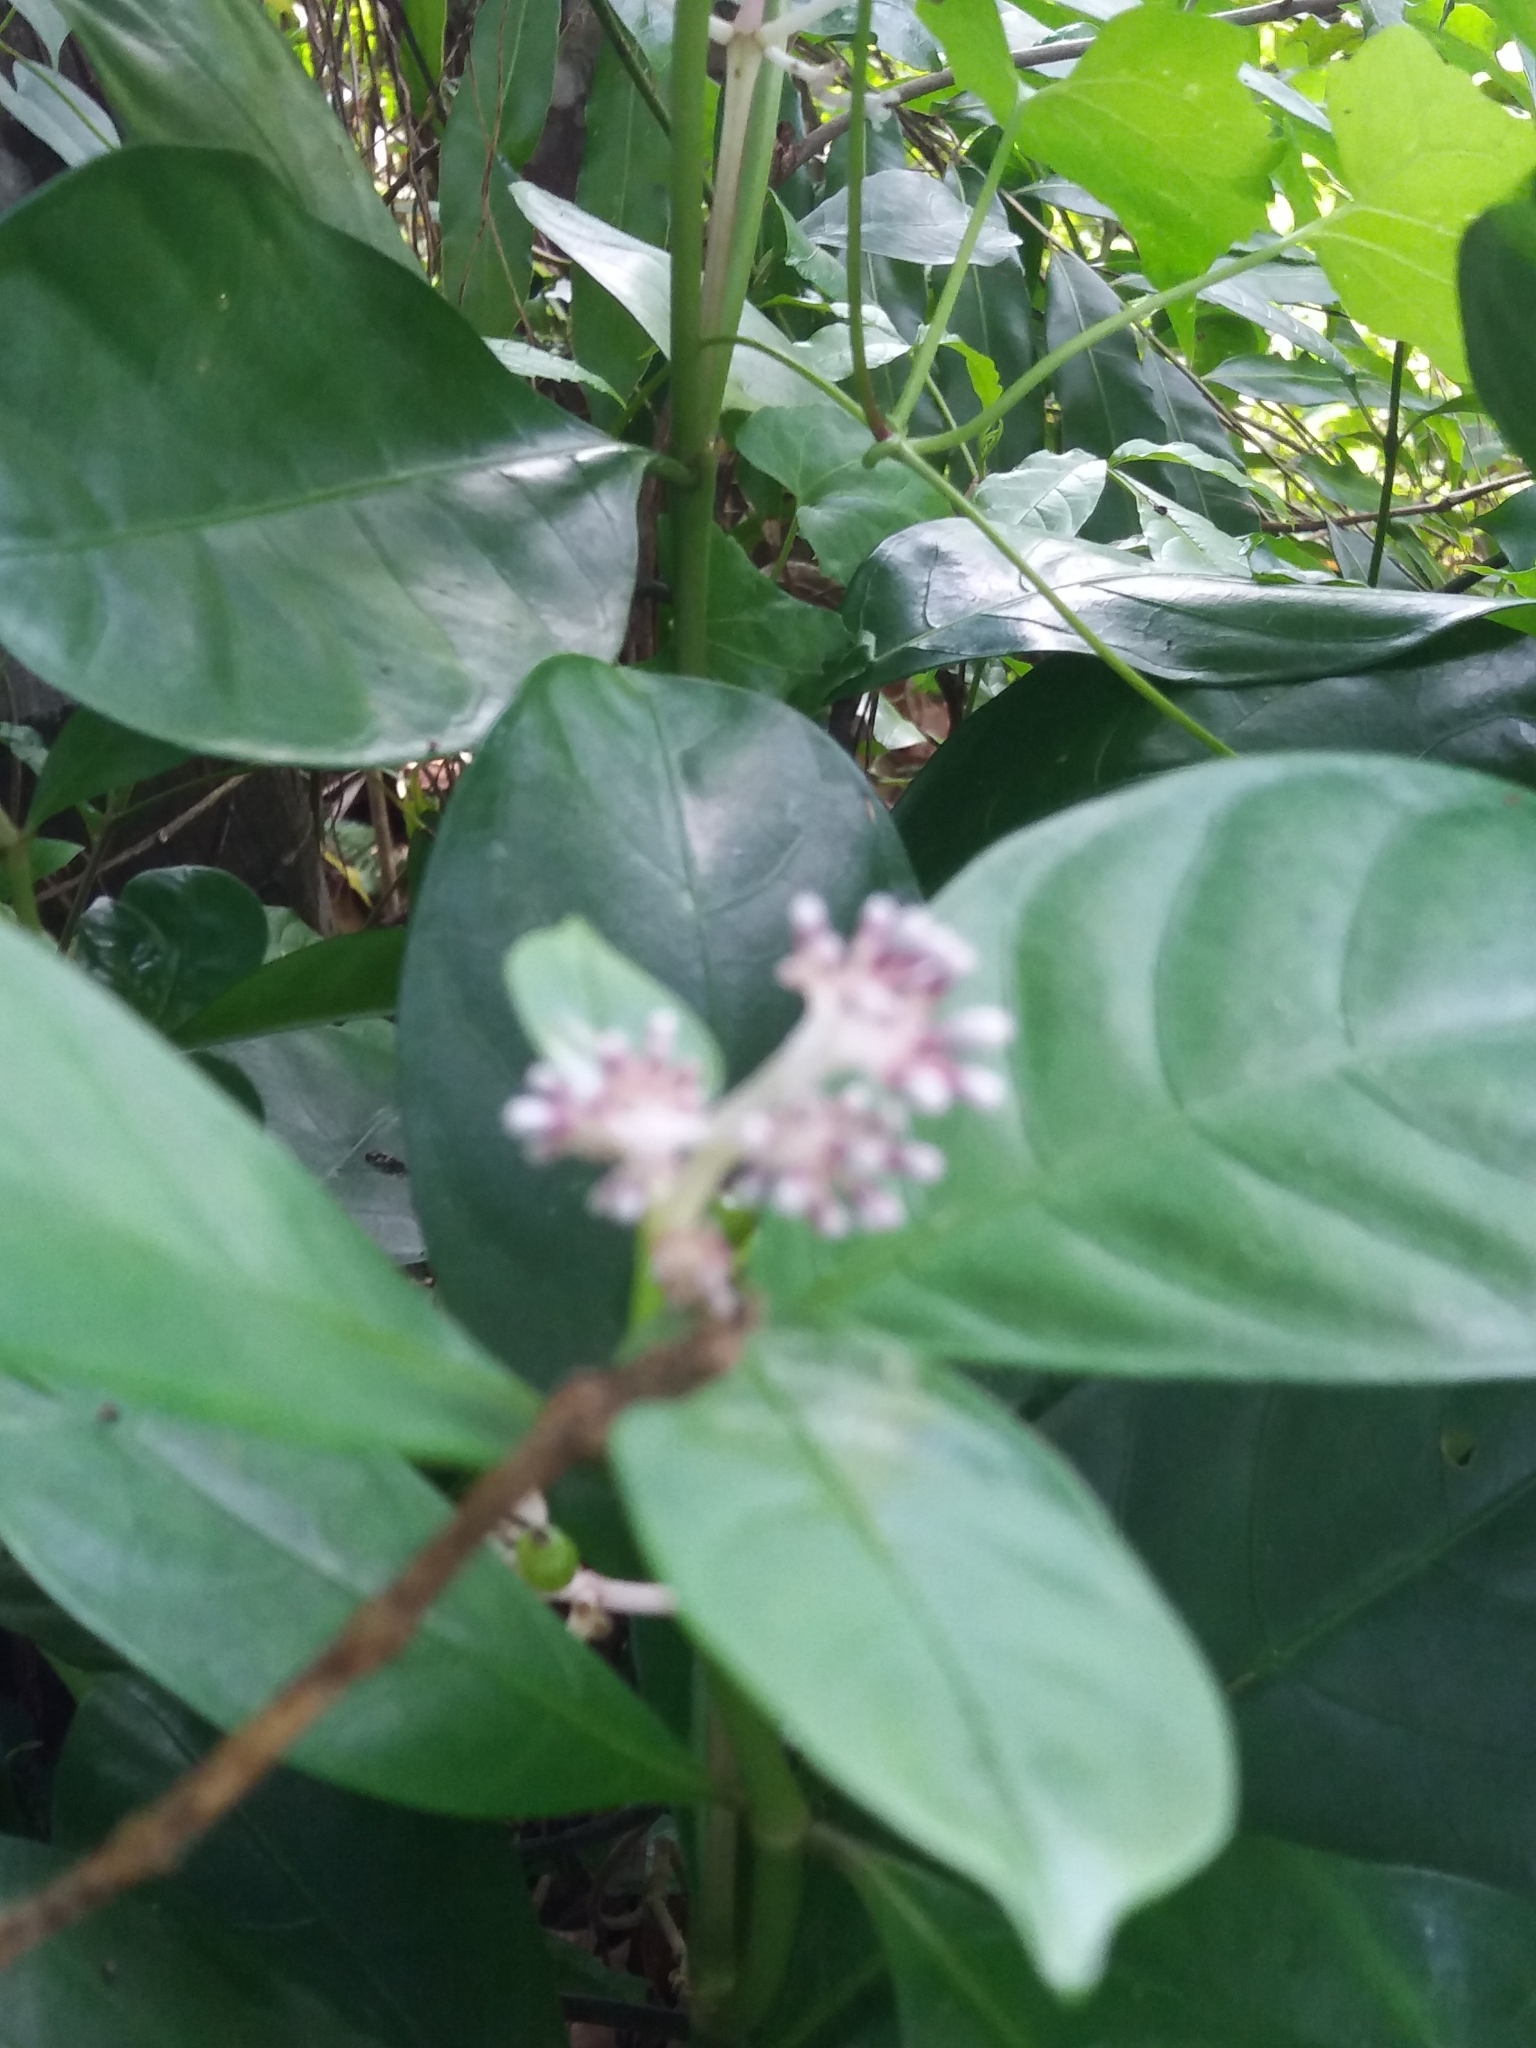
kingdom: Plantae
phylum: Tracheophyta
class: Magnoliopsida
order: Gentianales
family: Rubiaceae
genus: Chassalia
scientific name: Chassalia curviflora
